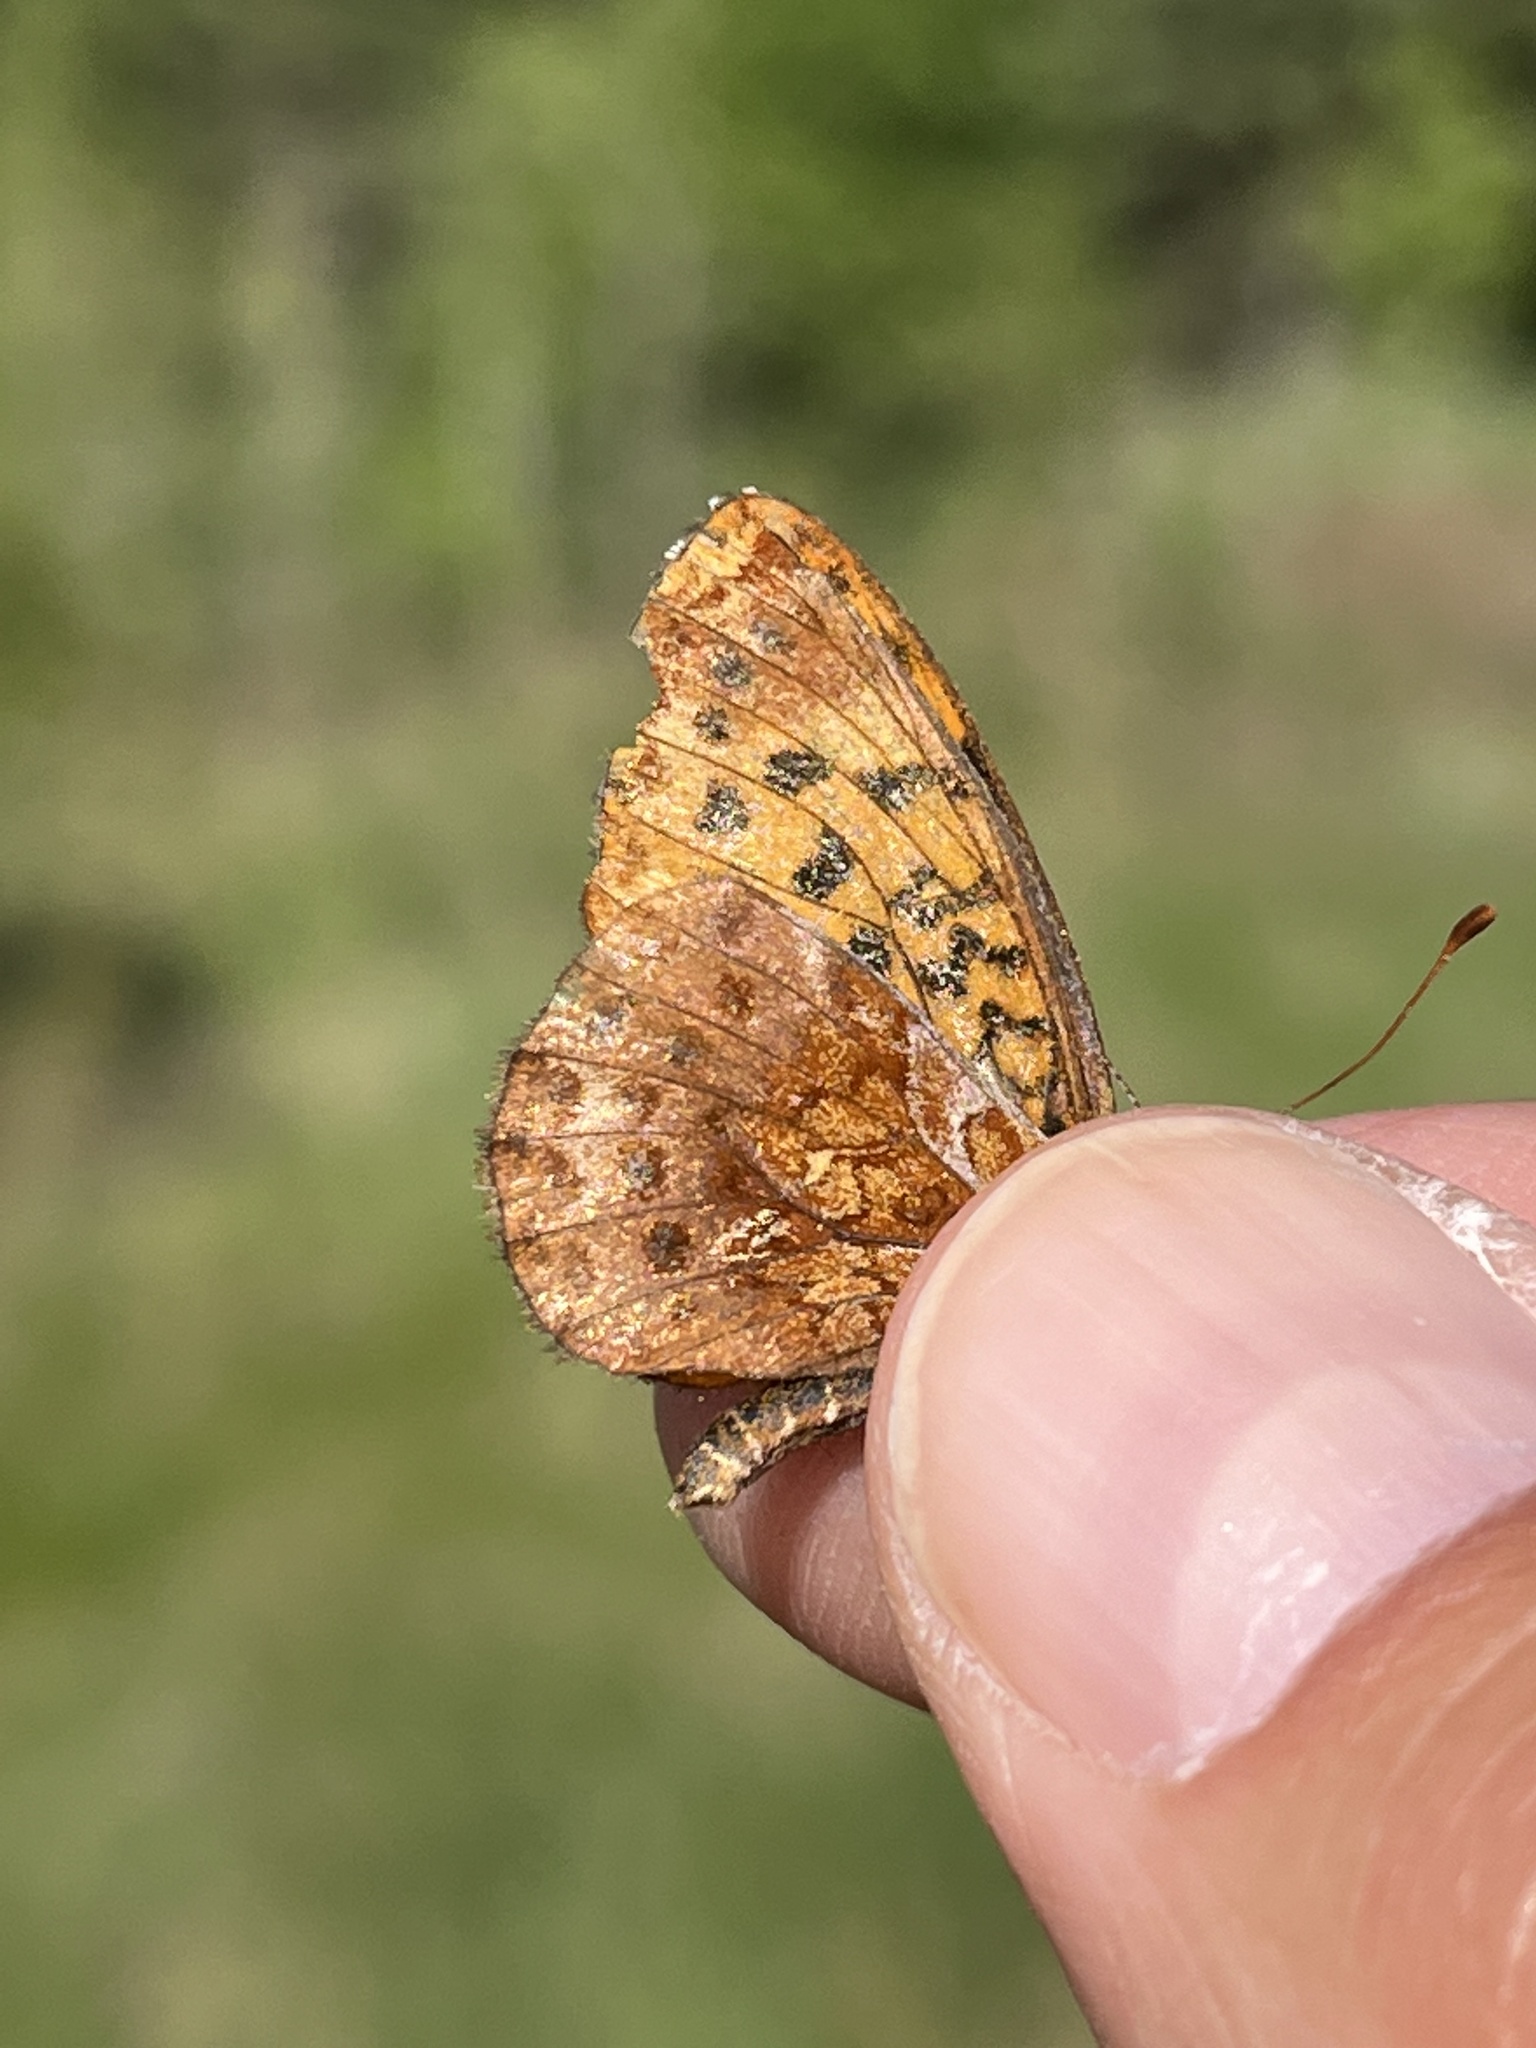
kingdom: Animalia
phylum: Arthropoda
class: Insecta
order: Lepidoptera
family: Nymphalidae
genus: Clossiana
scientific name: Clossiana toddi
